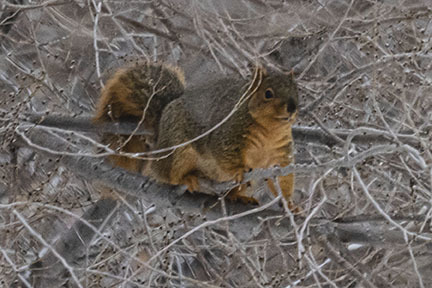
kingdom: Animalia
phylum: Chordata
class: Mammalia
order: Rodentia
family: Sciuridae
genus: Sciurus
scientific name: Sciurus niger
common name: Fox squirrel
